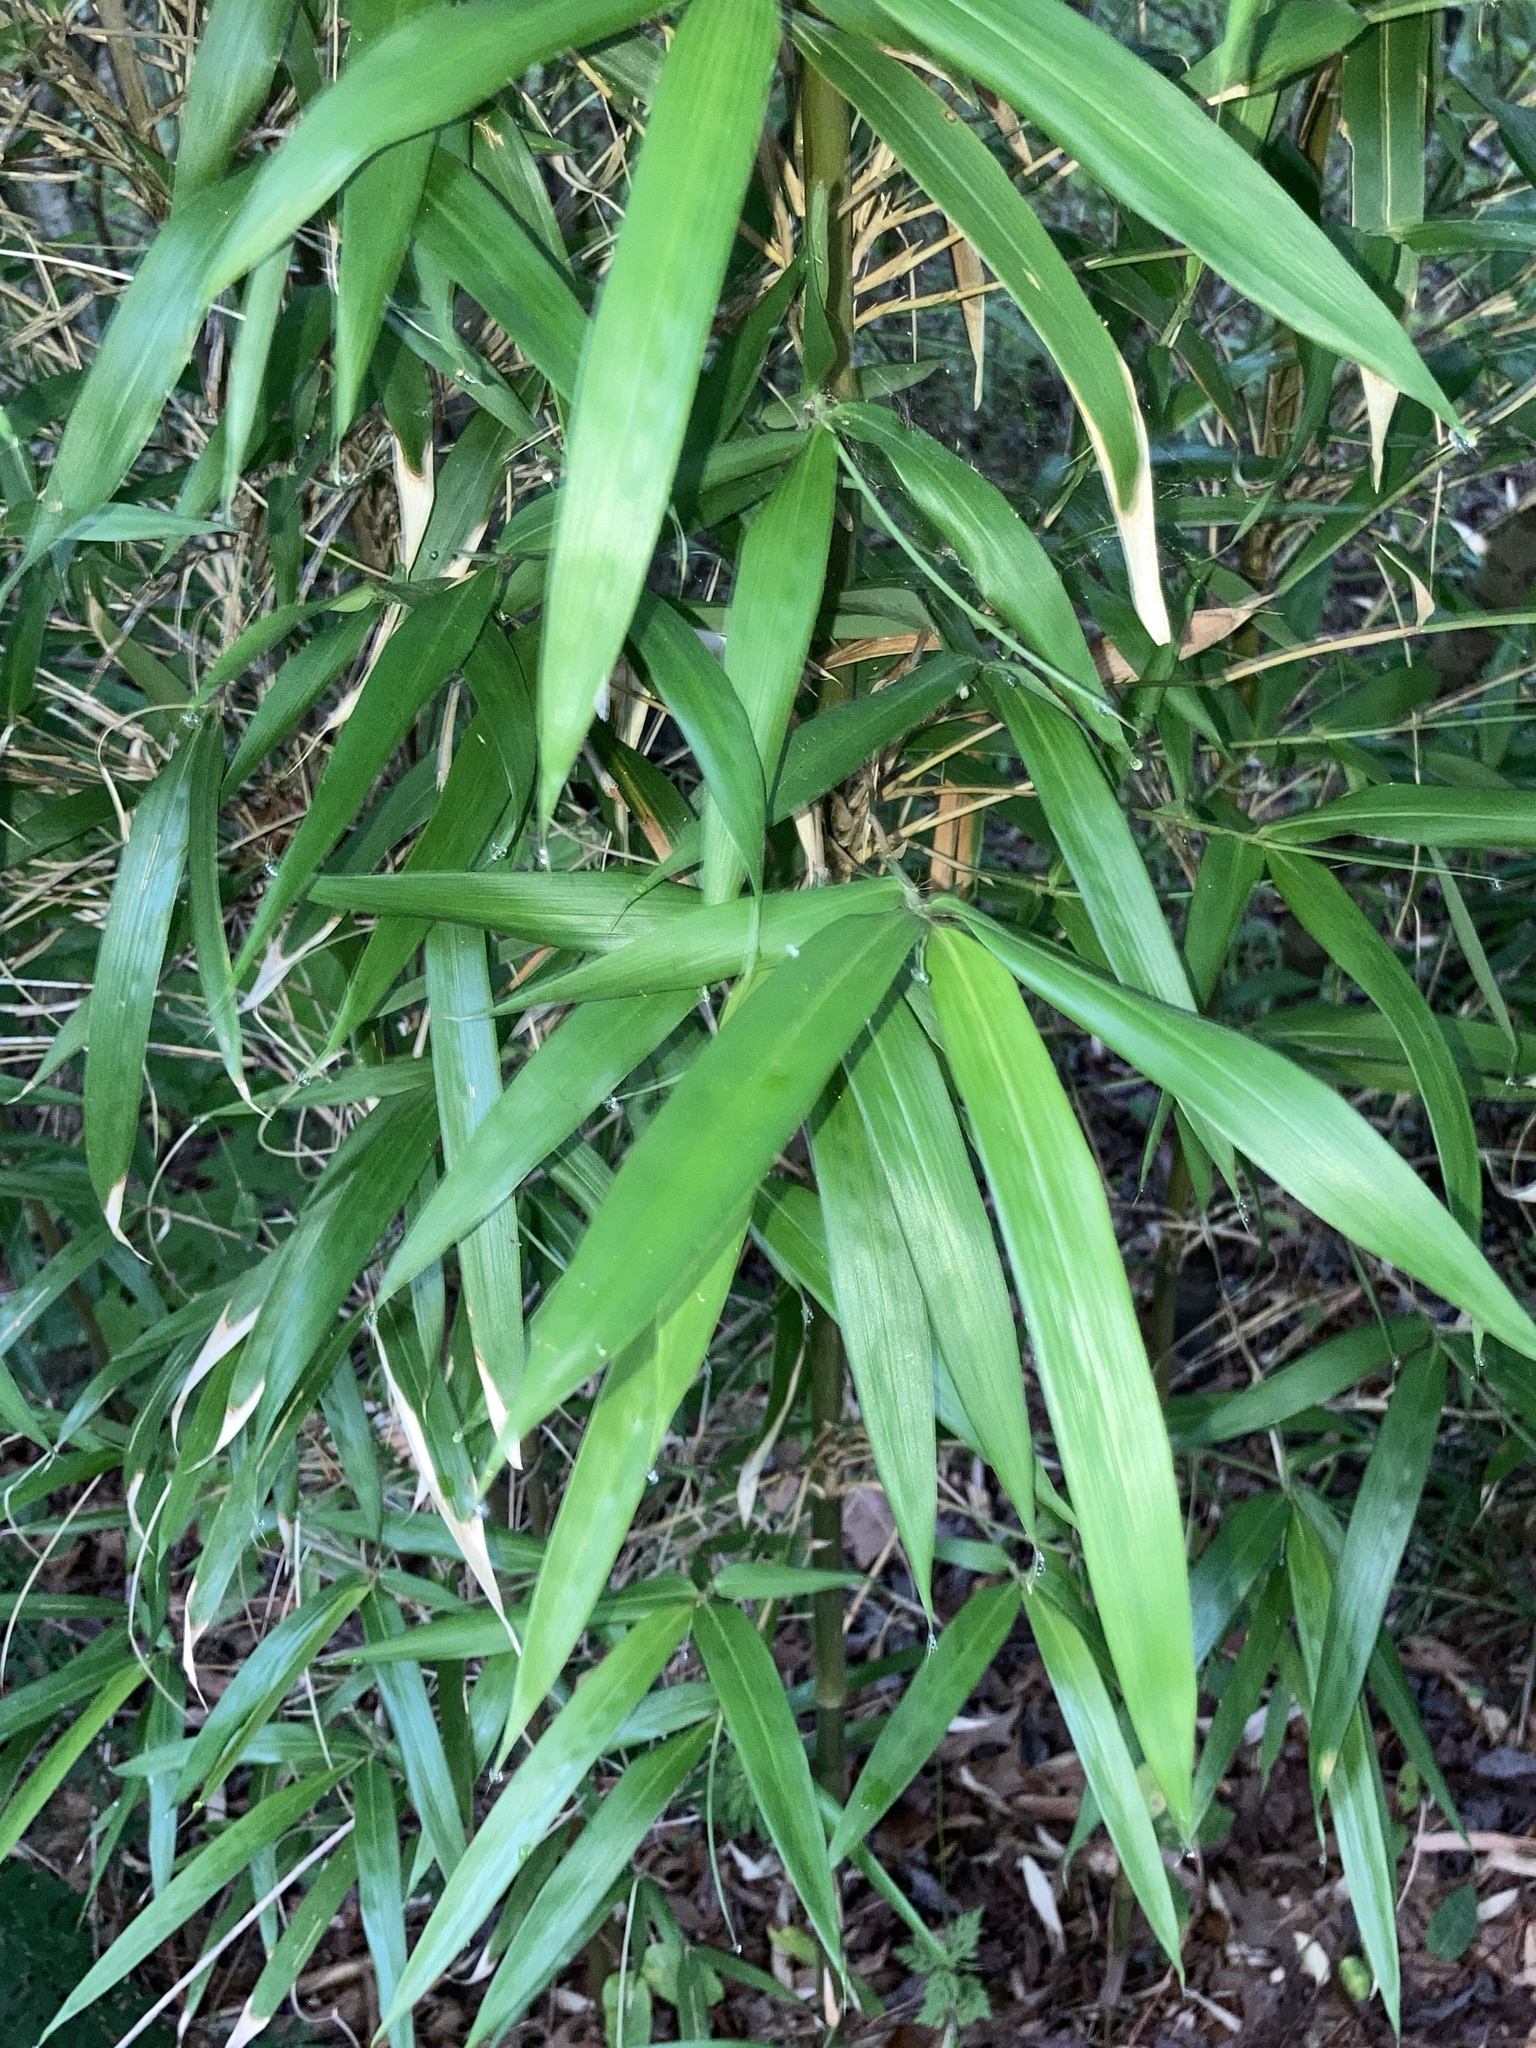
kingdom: Plantae
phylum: Tracheophyta
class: Liliopsida
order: Poales
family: Poaceae
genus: Arundinaria
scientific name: Arundinaria gigantea
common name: Giant cane
